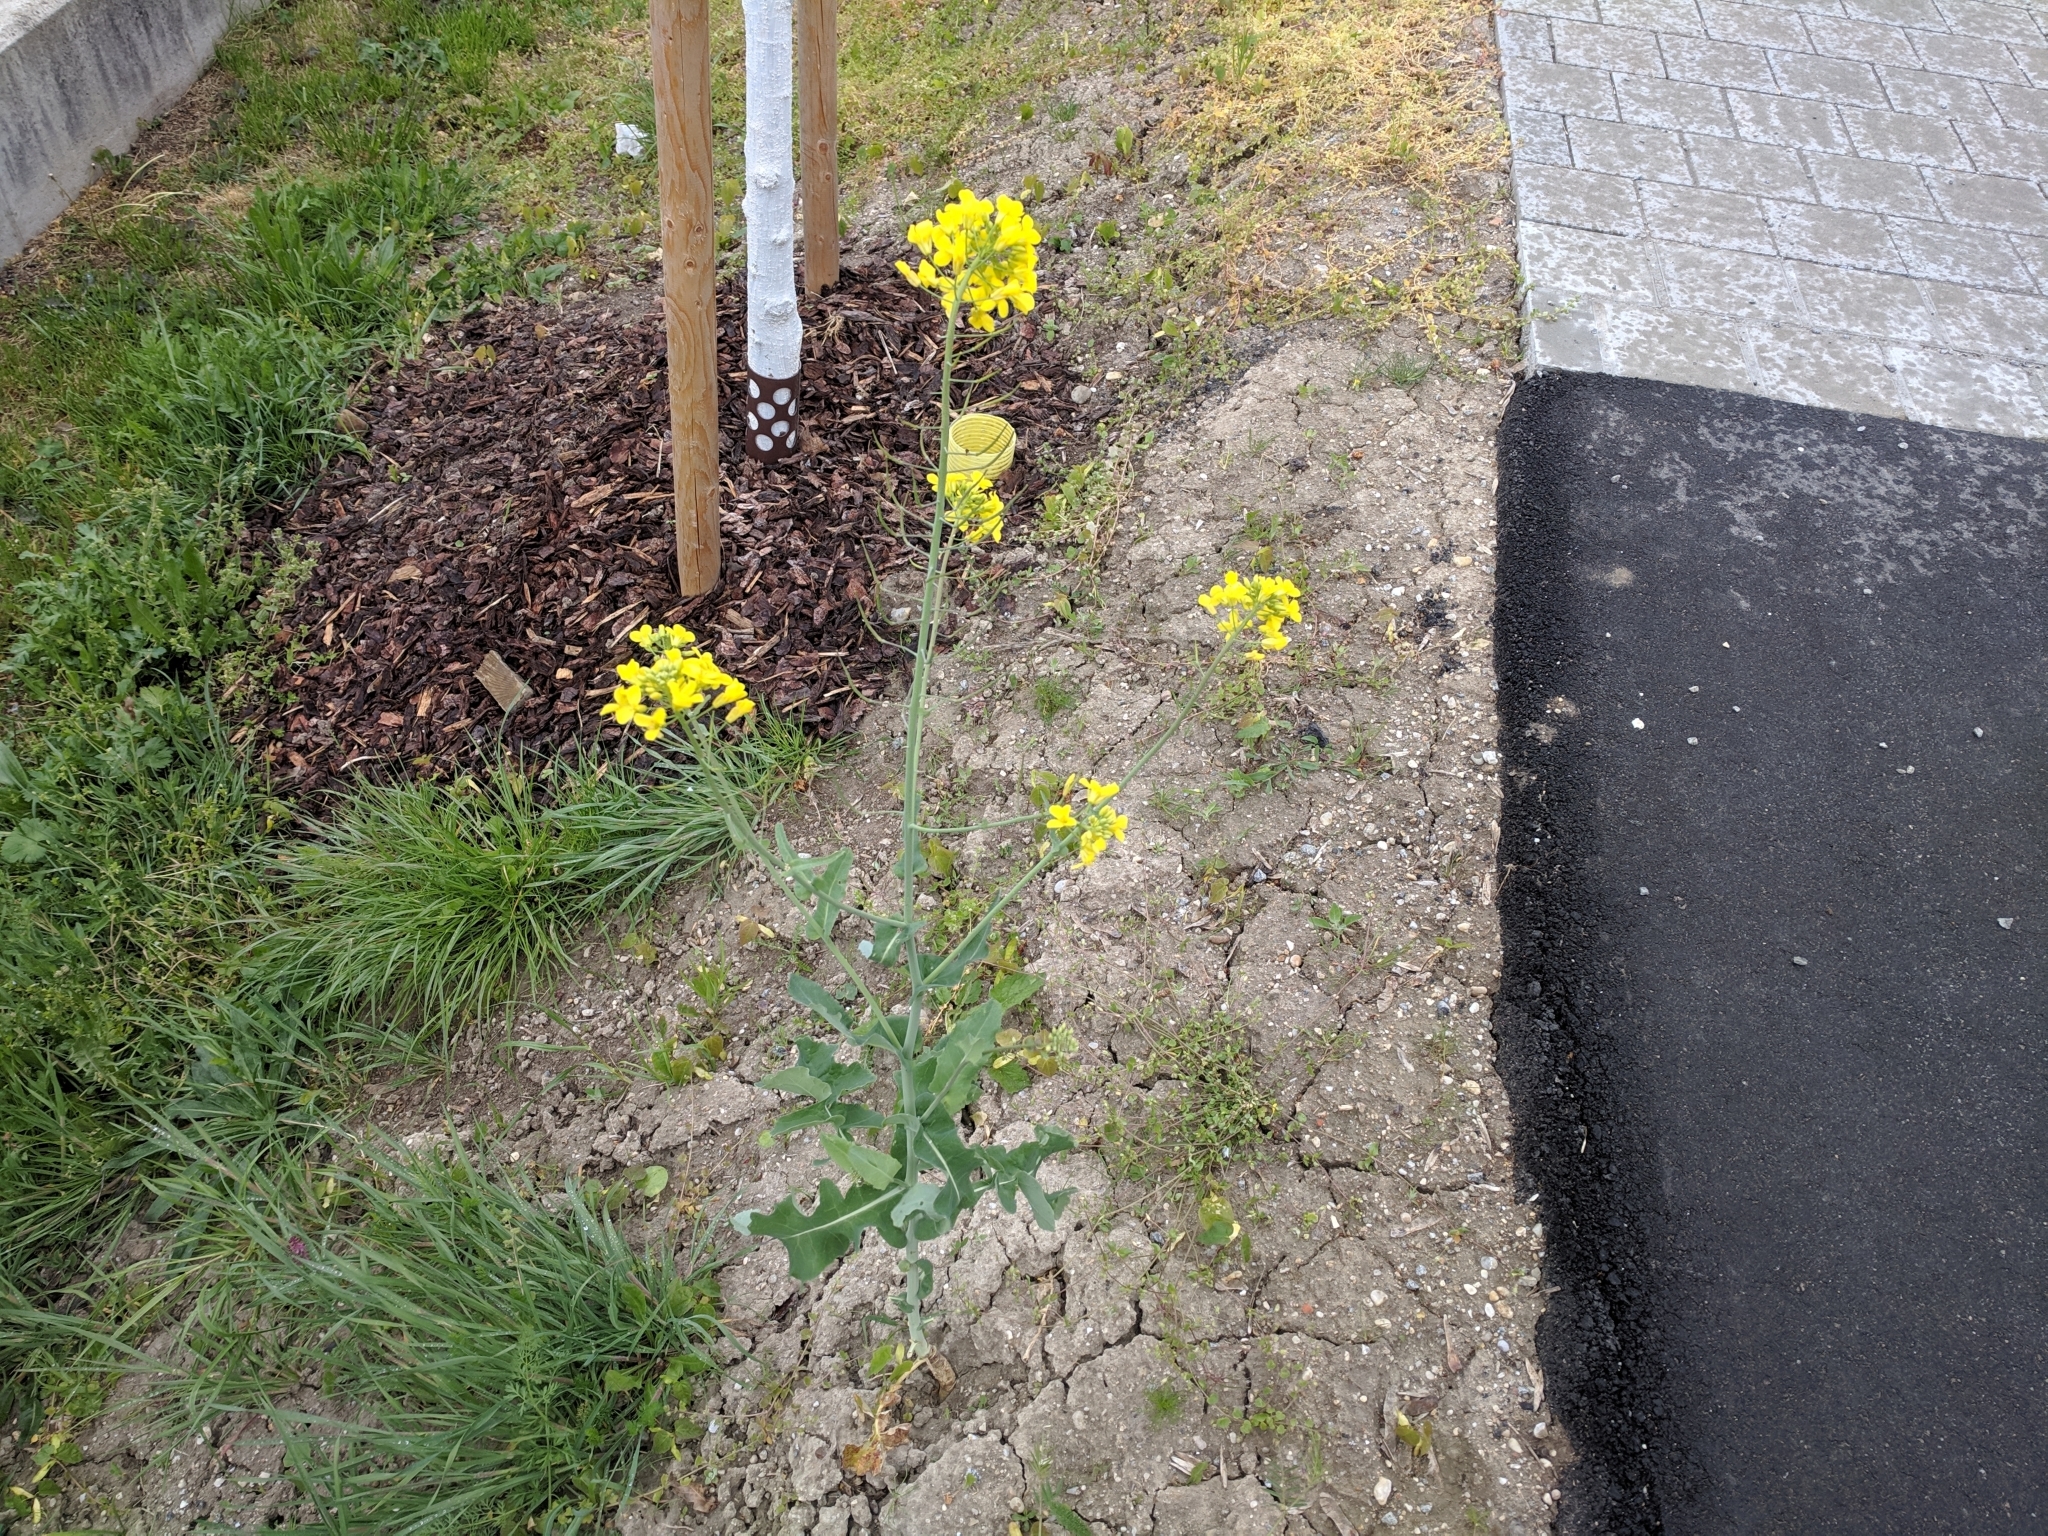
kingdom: Plantae
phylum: Tracheophyta
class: Magnoliopsida
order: Brassicales
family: Brassicaceae
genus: Brassica
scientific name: Brassica napus
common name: Rape
